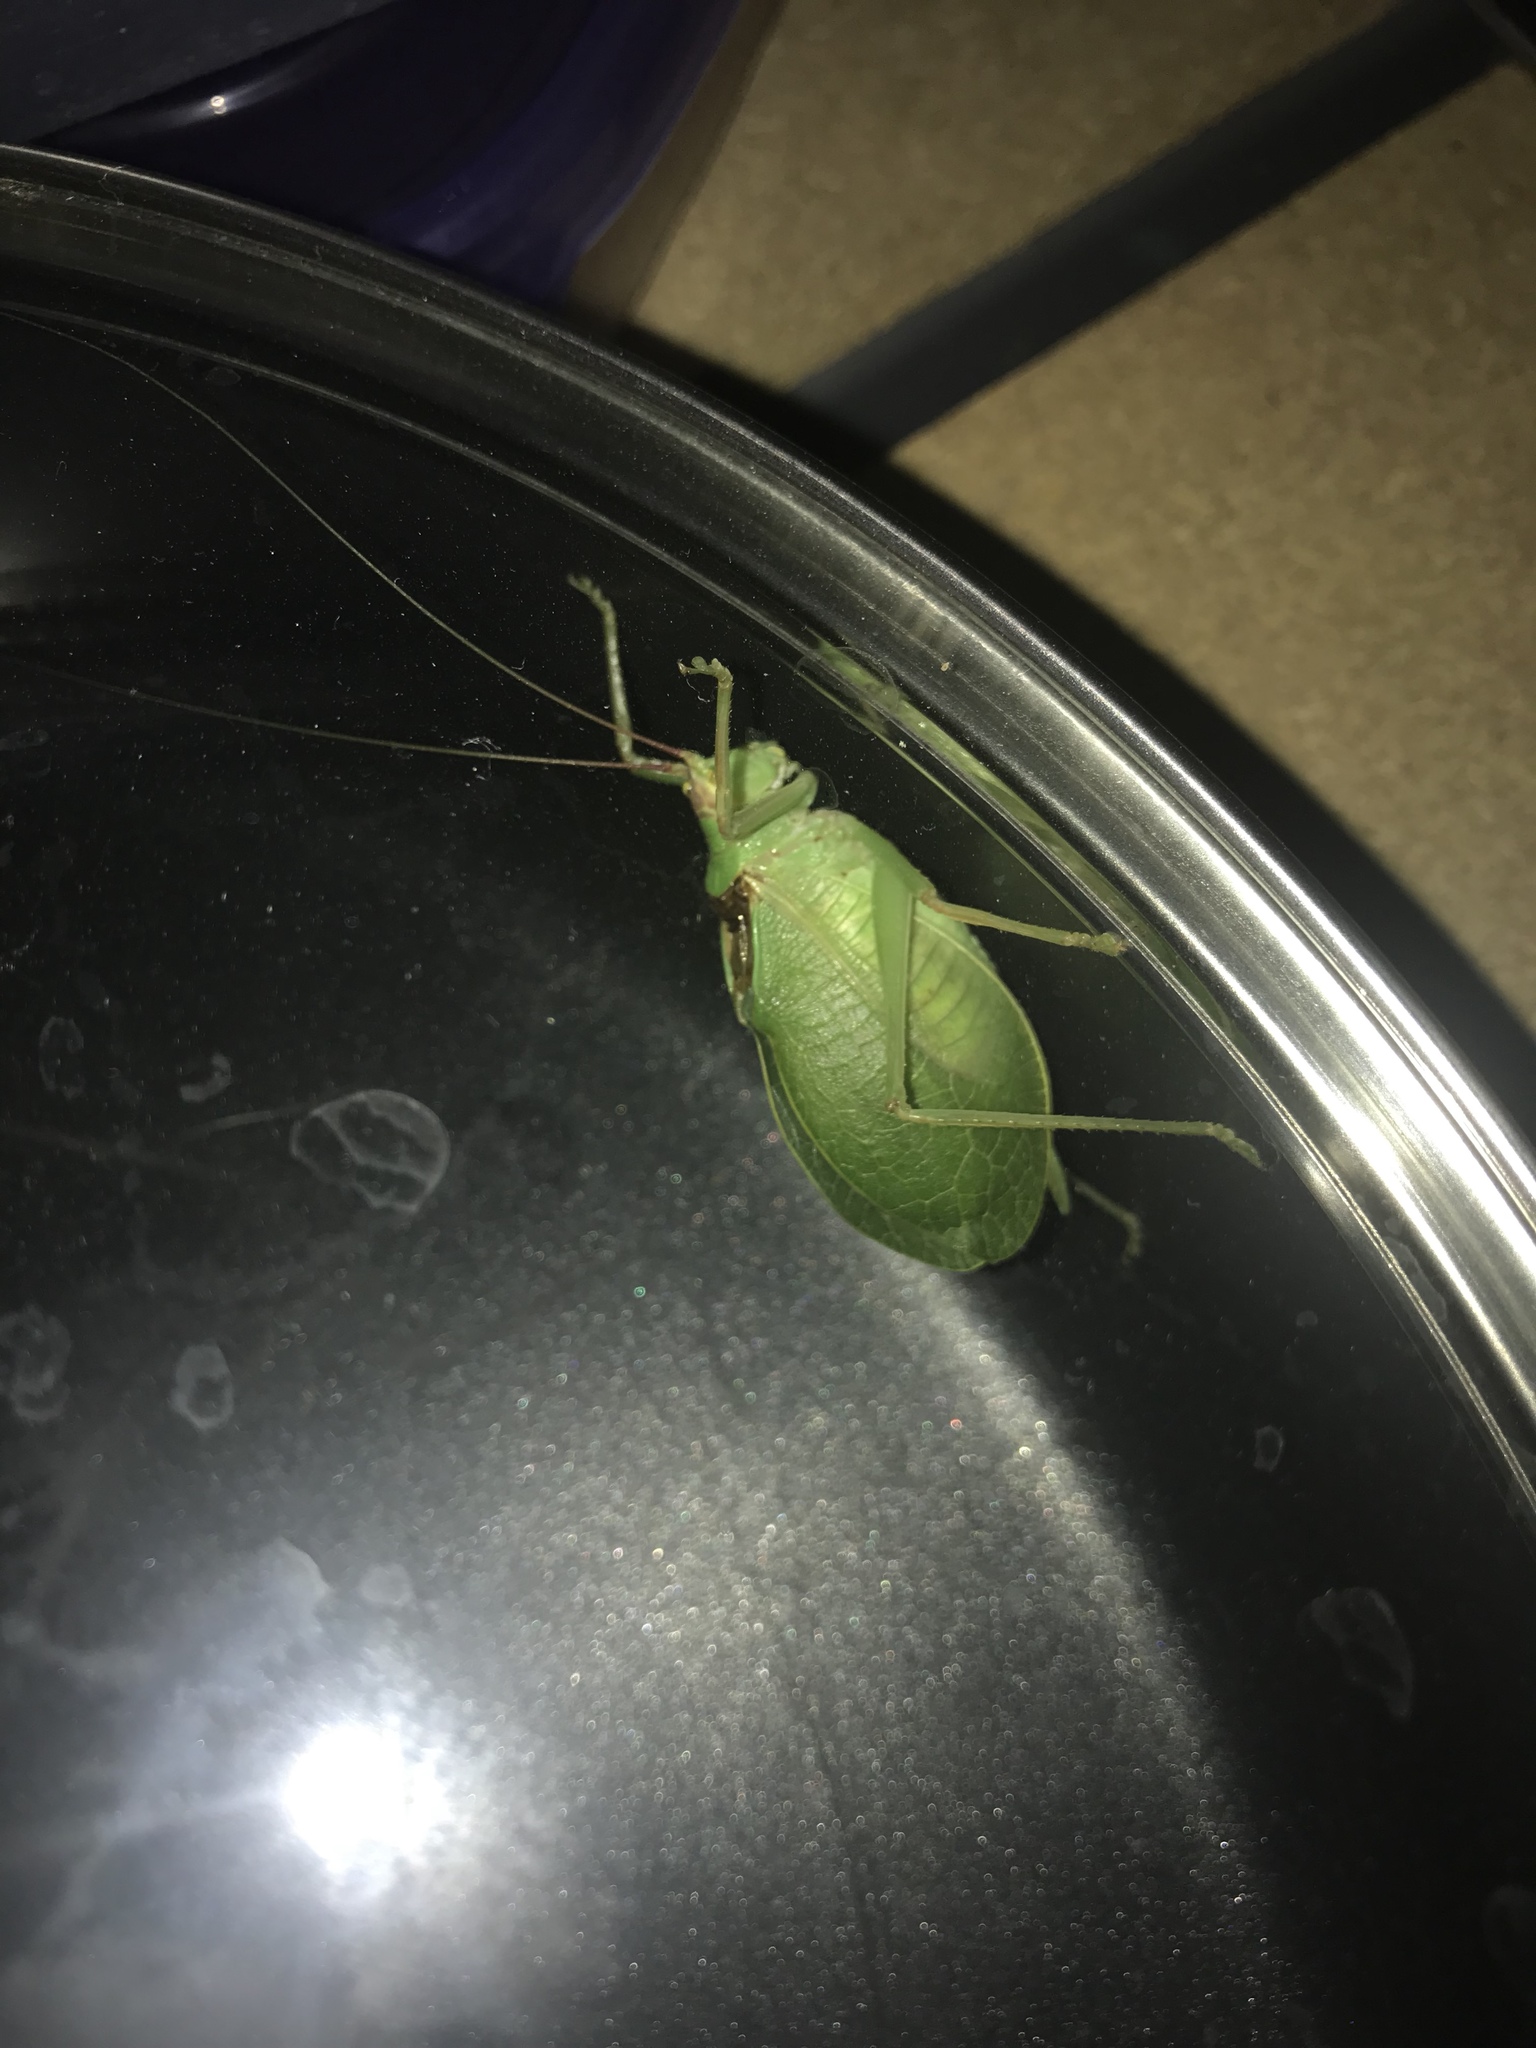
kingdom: Animalia
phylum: Arthropoda
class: Insecta
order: Orthoptera
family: Tettigoniidae
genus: Pterophylla
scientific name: Pterophylla camellifolia
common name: Common true katydid
